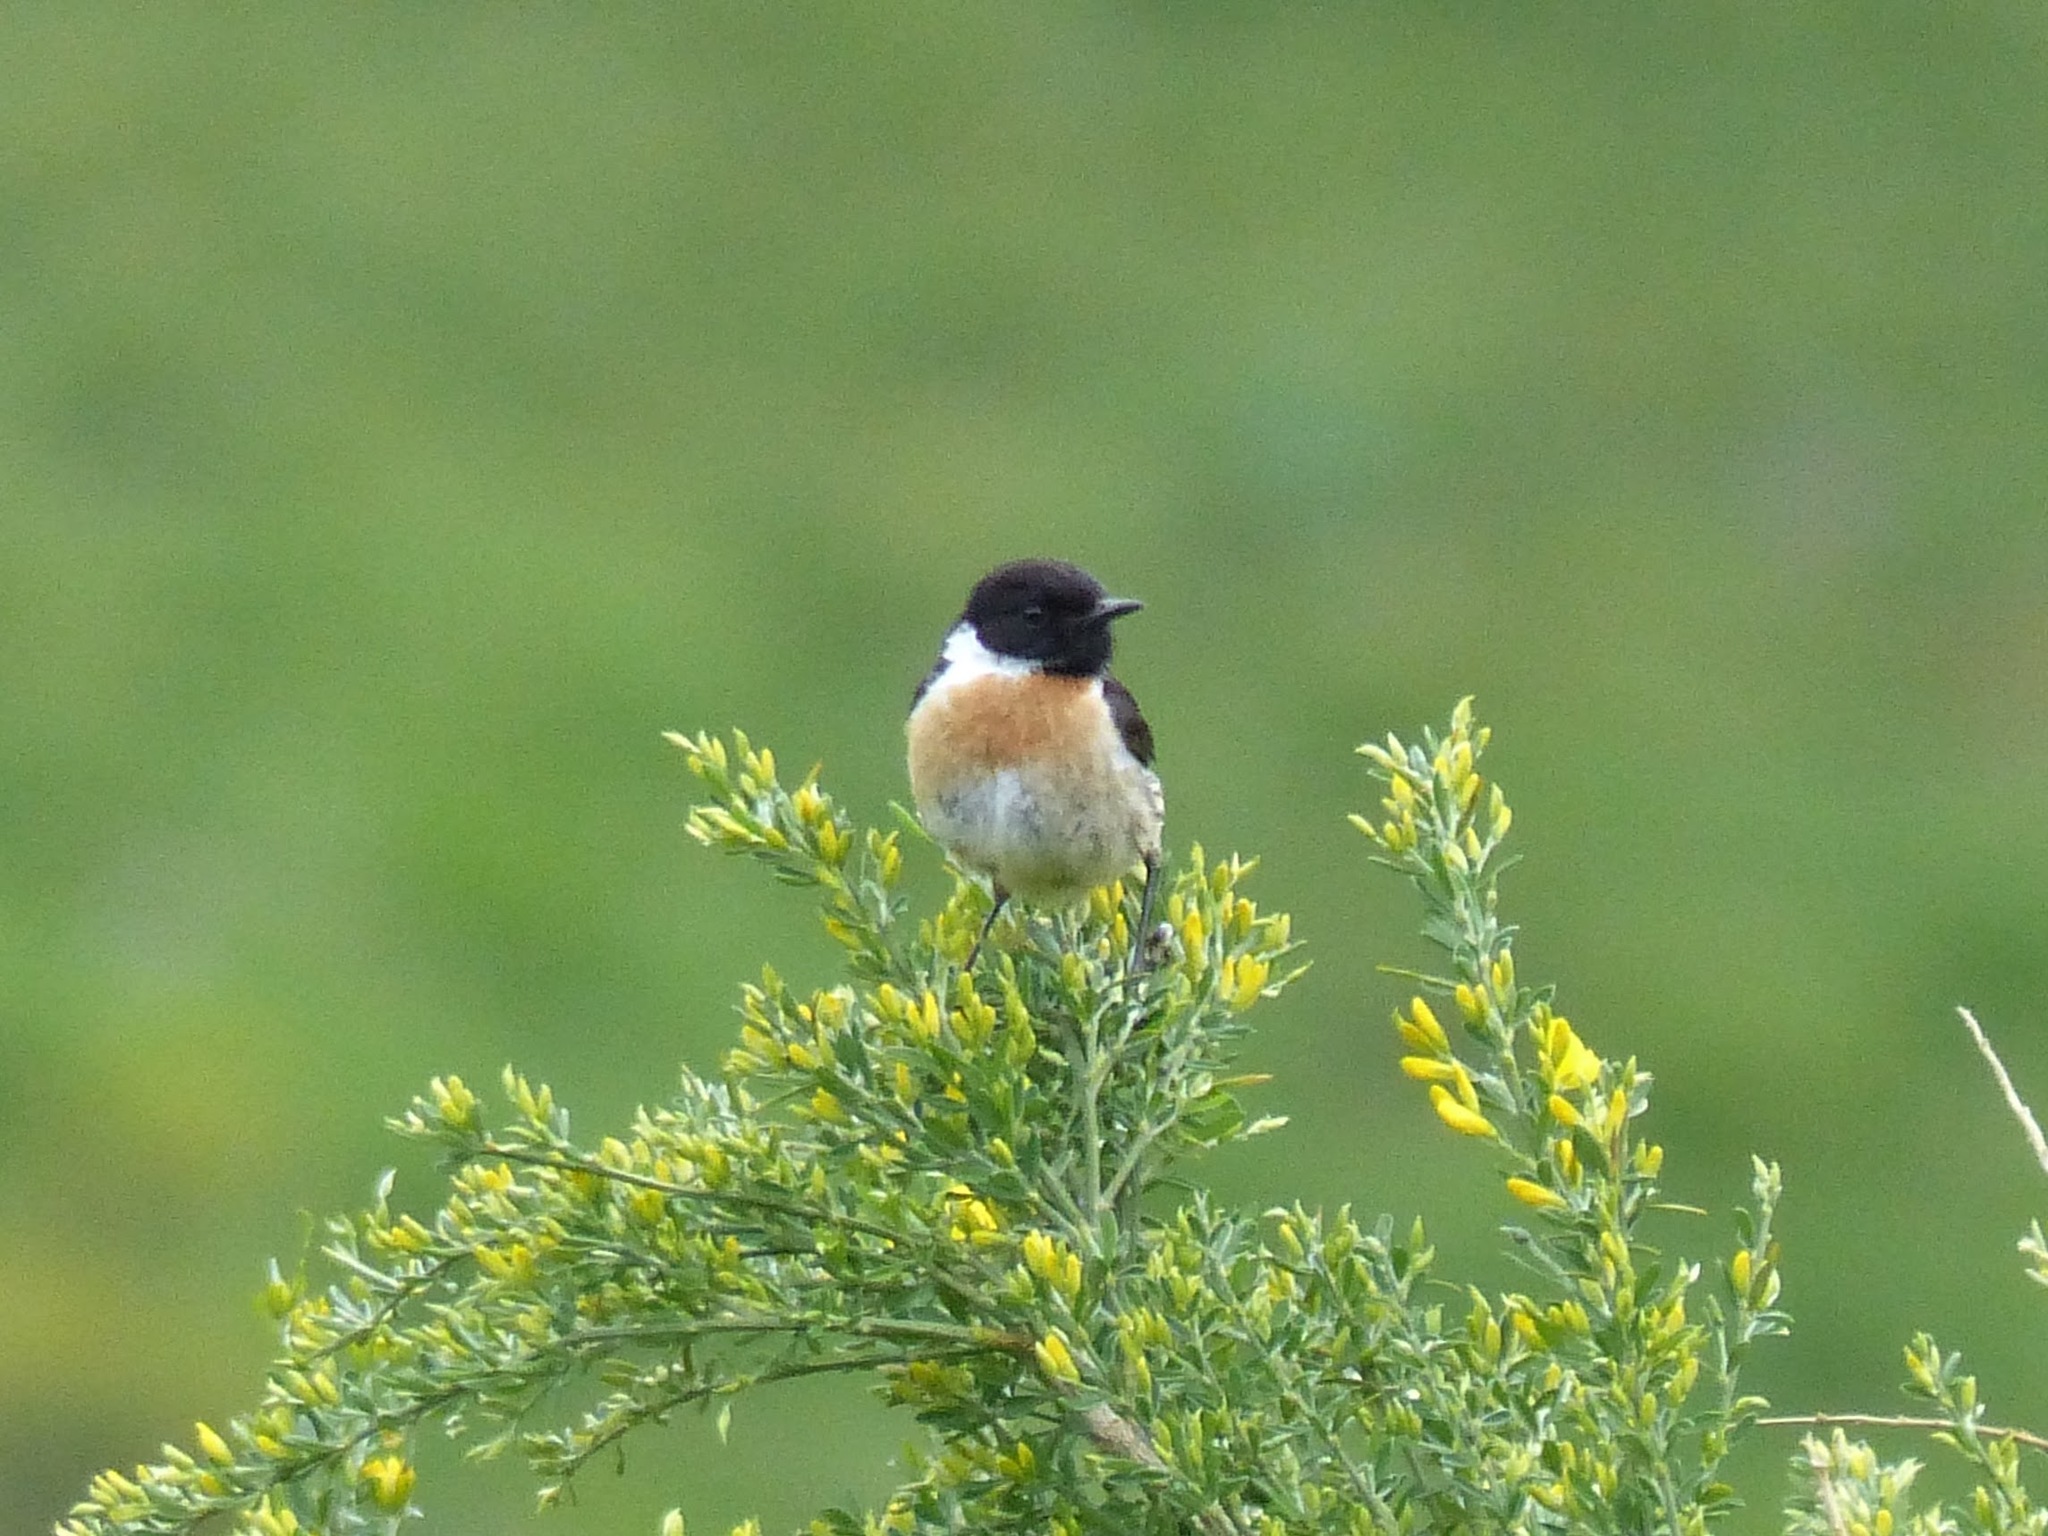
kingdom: Animalia
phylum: Chordata
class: Aves
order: Passeriformes
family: Muscicapidae
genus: Saxicola
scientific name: Saxicola rubicola
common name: European stonechat
